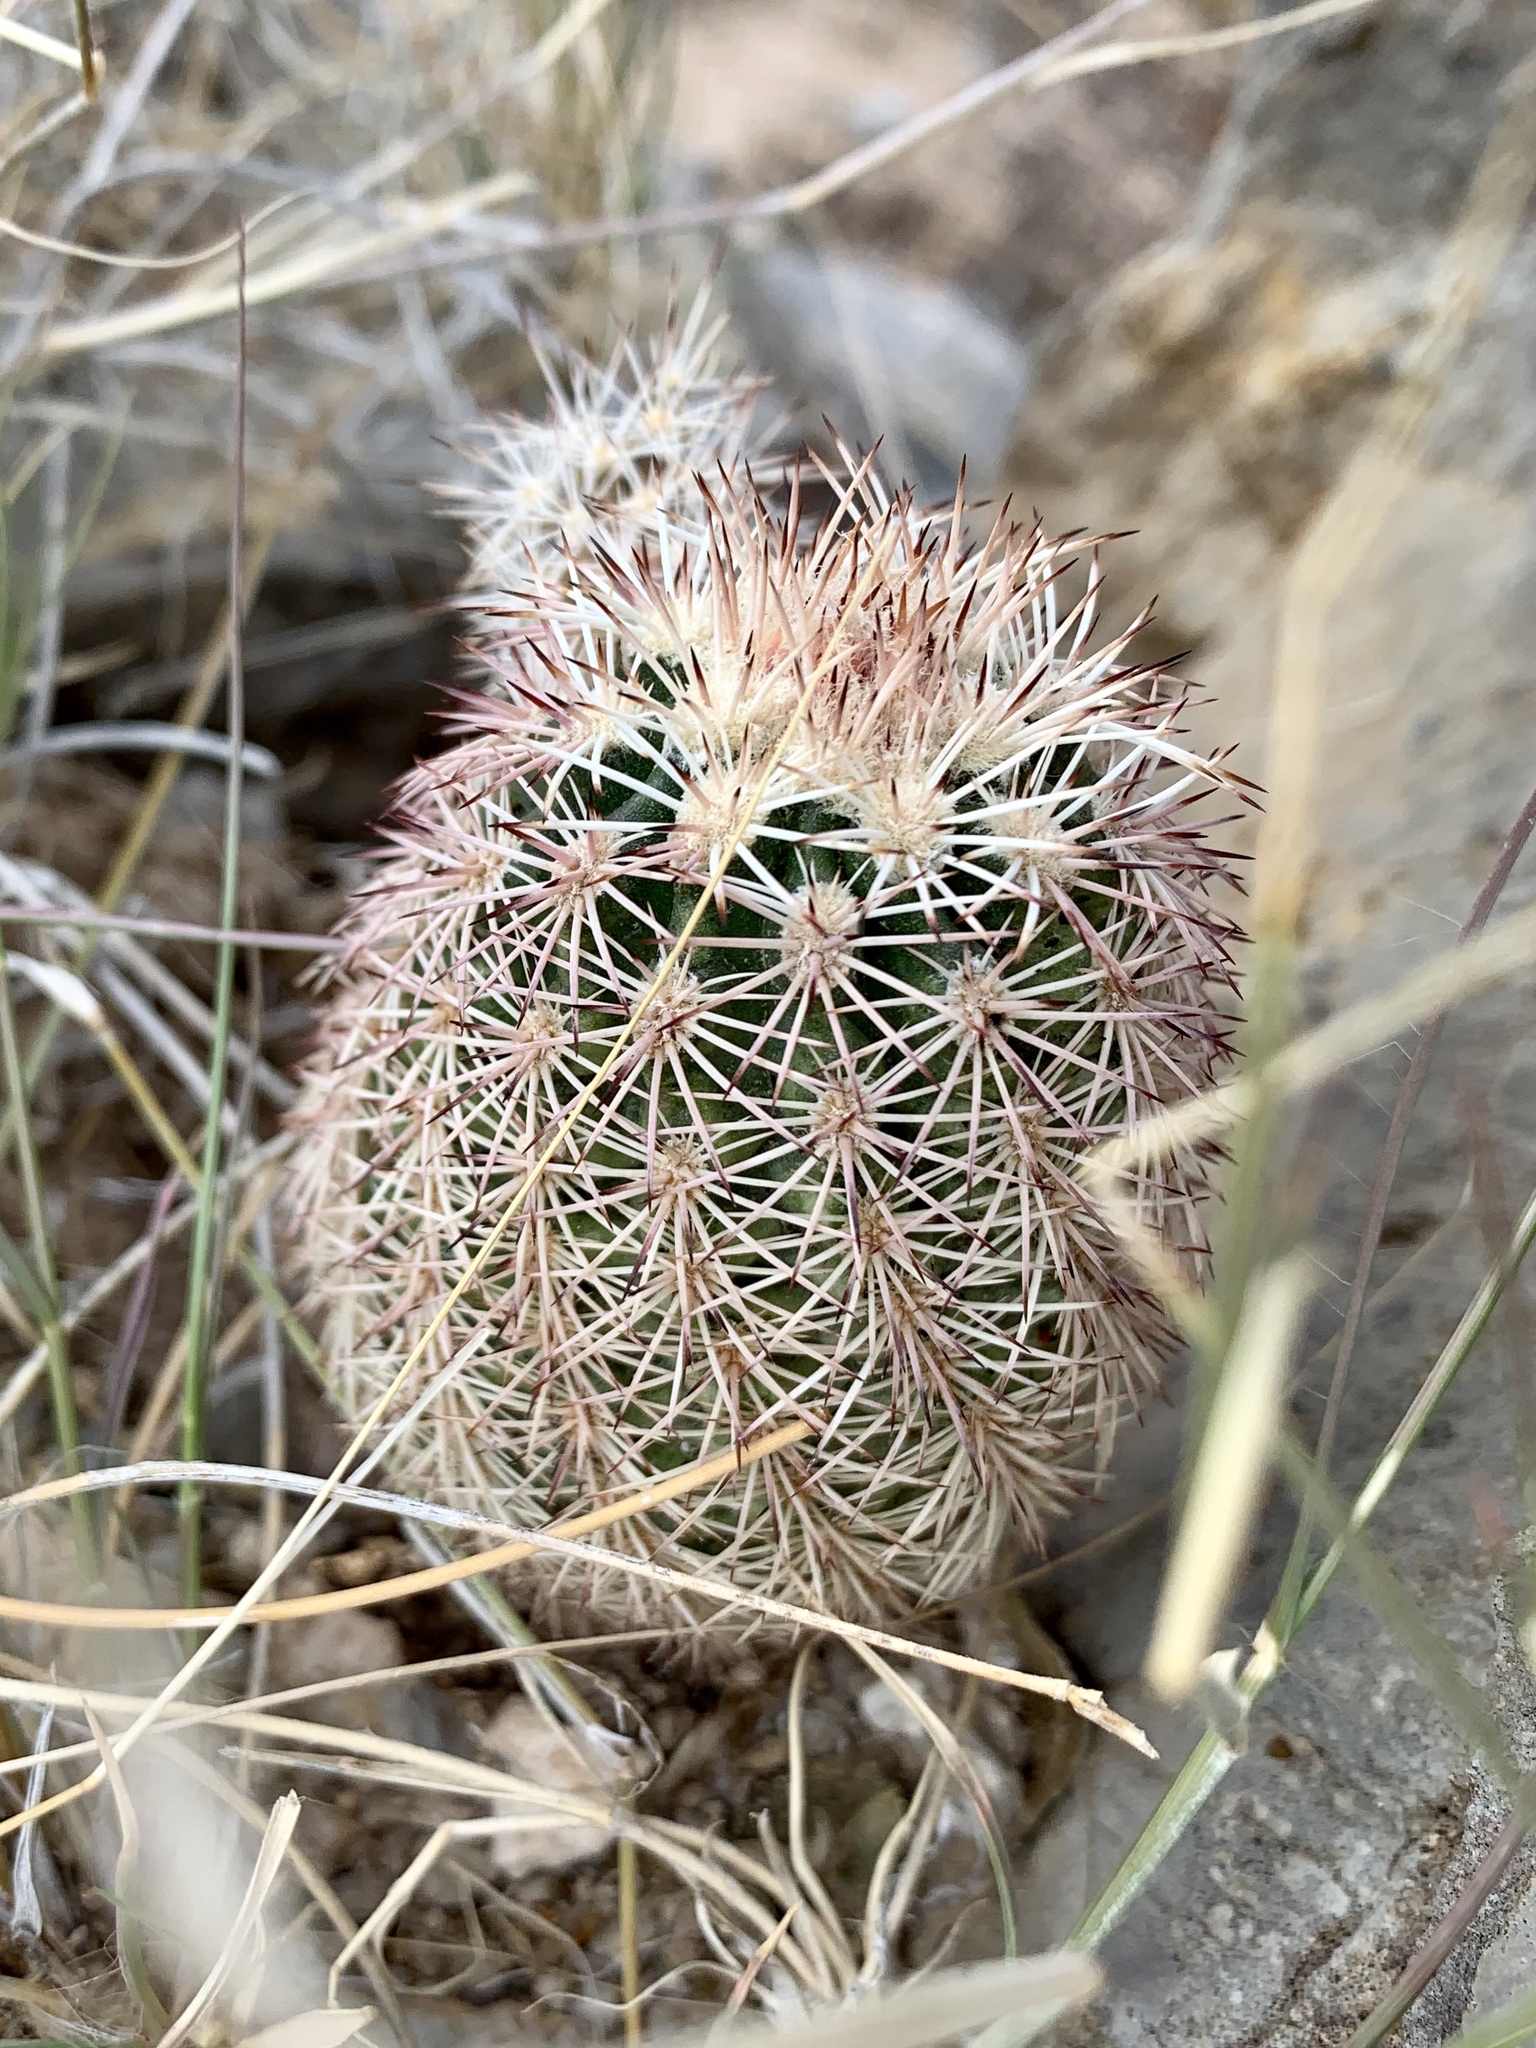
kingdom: Plantae
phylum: Tracheophyta
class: Magnoliopsida
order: Caryophyllales
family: Cactaceae
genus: Echinocereus
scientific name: Echinocereus dasyacanthus
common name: Spiny hedgehog cactus
